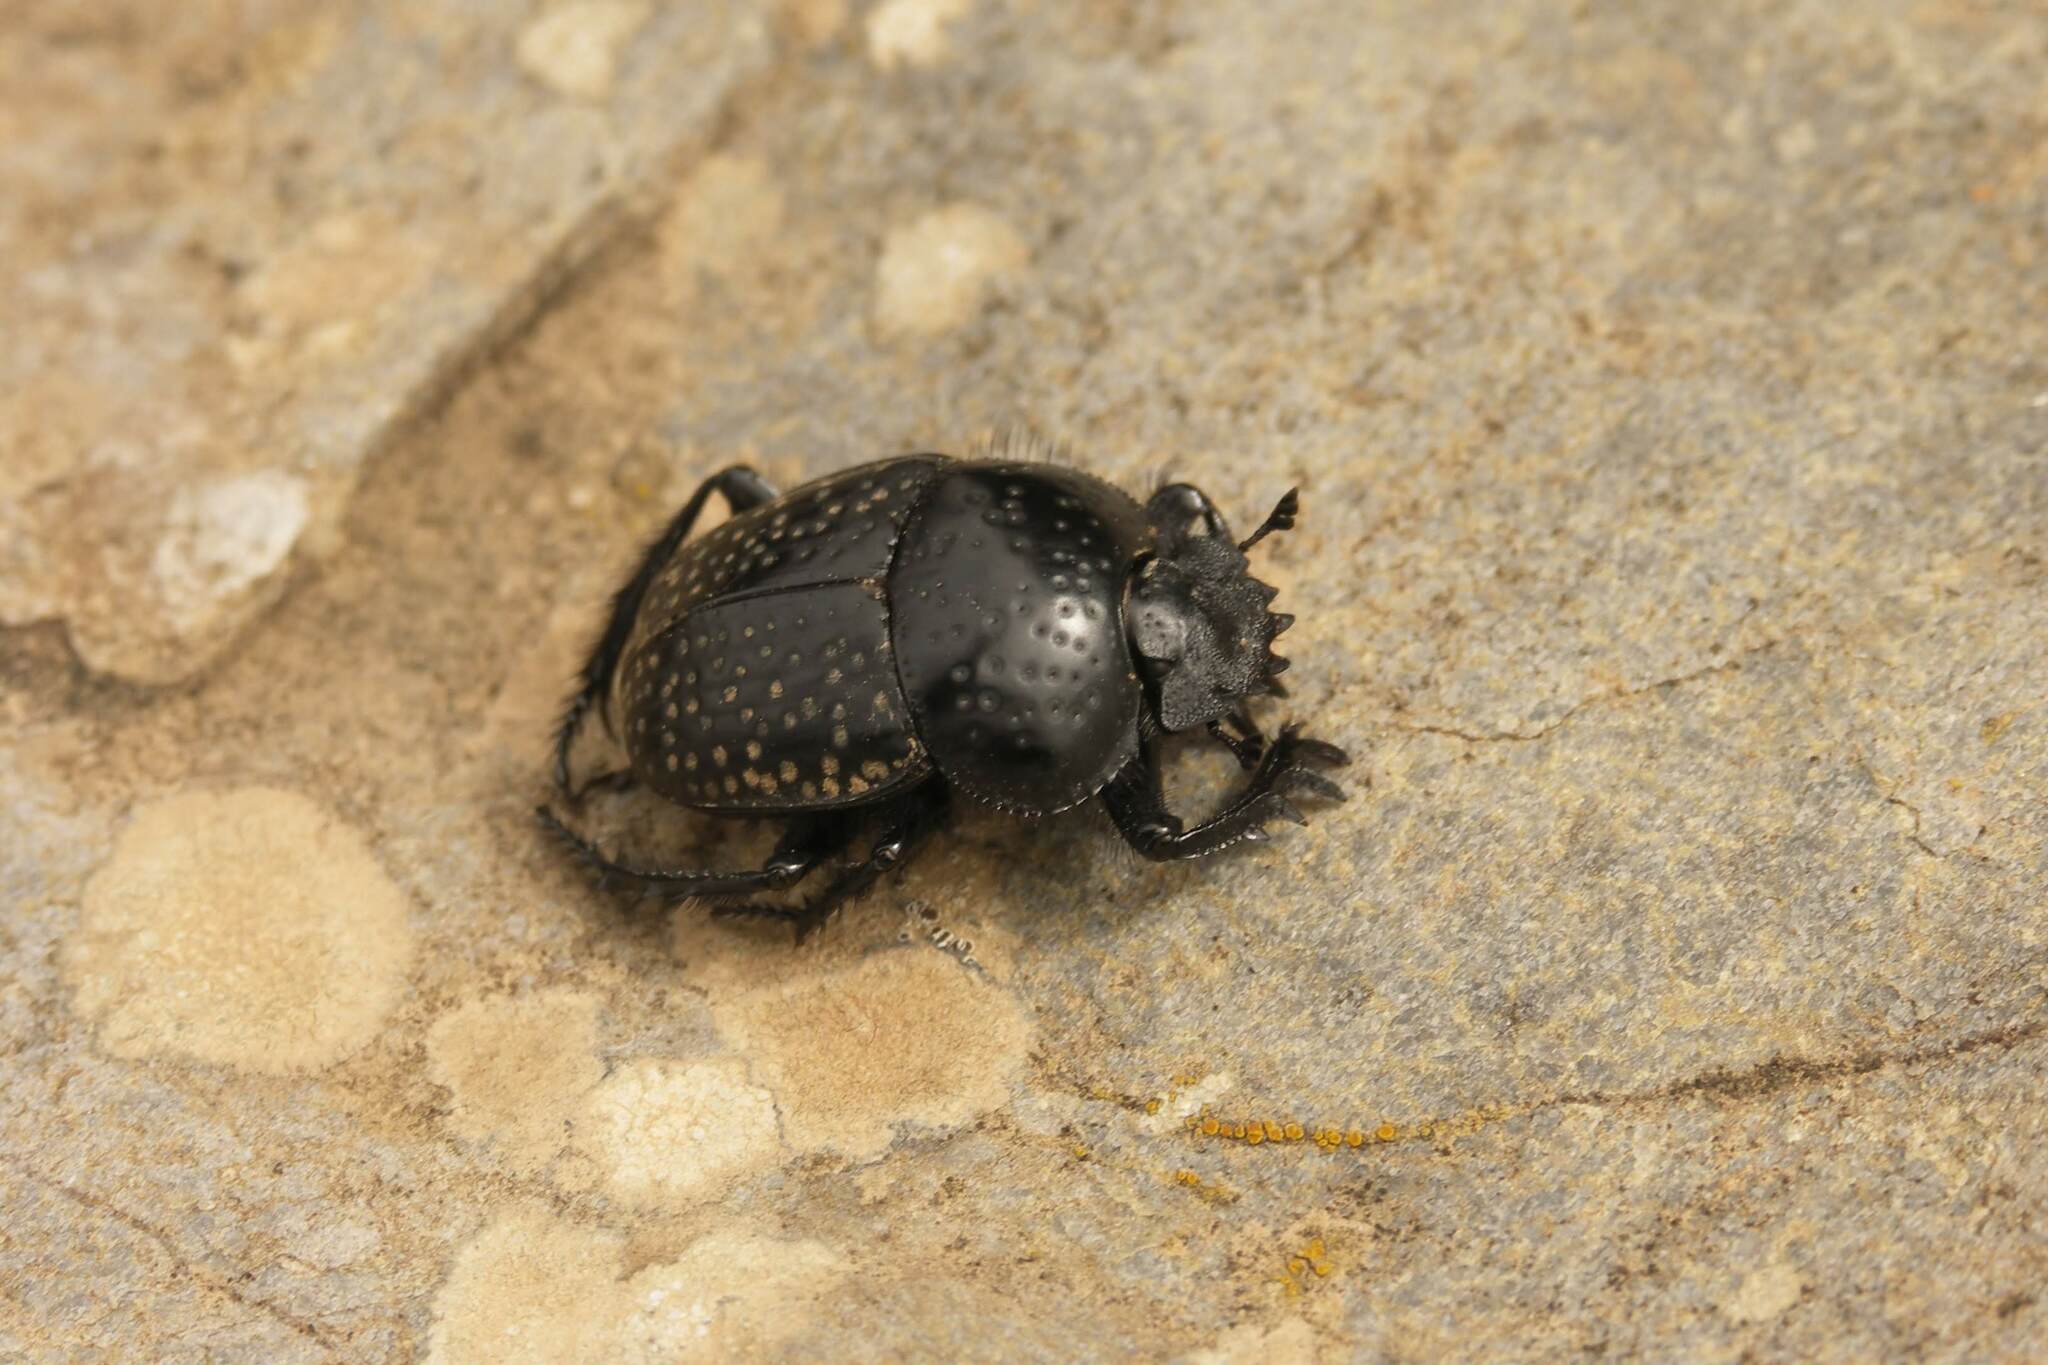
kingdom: Animalia
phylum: Arthropoda
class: Insecta
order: Coleoptera
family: Scarabaeidae
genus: Ateuchetus
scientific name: Ateuchetus
